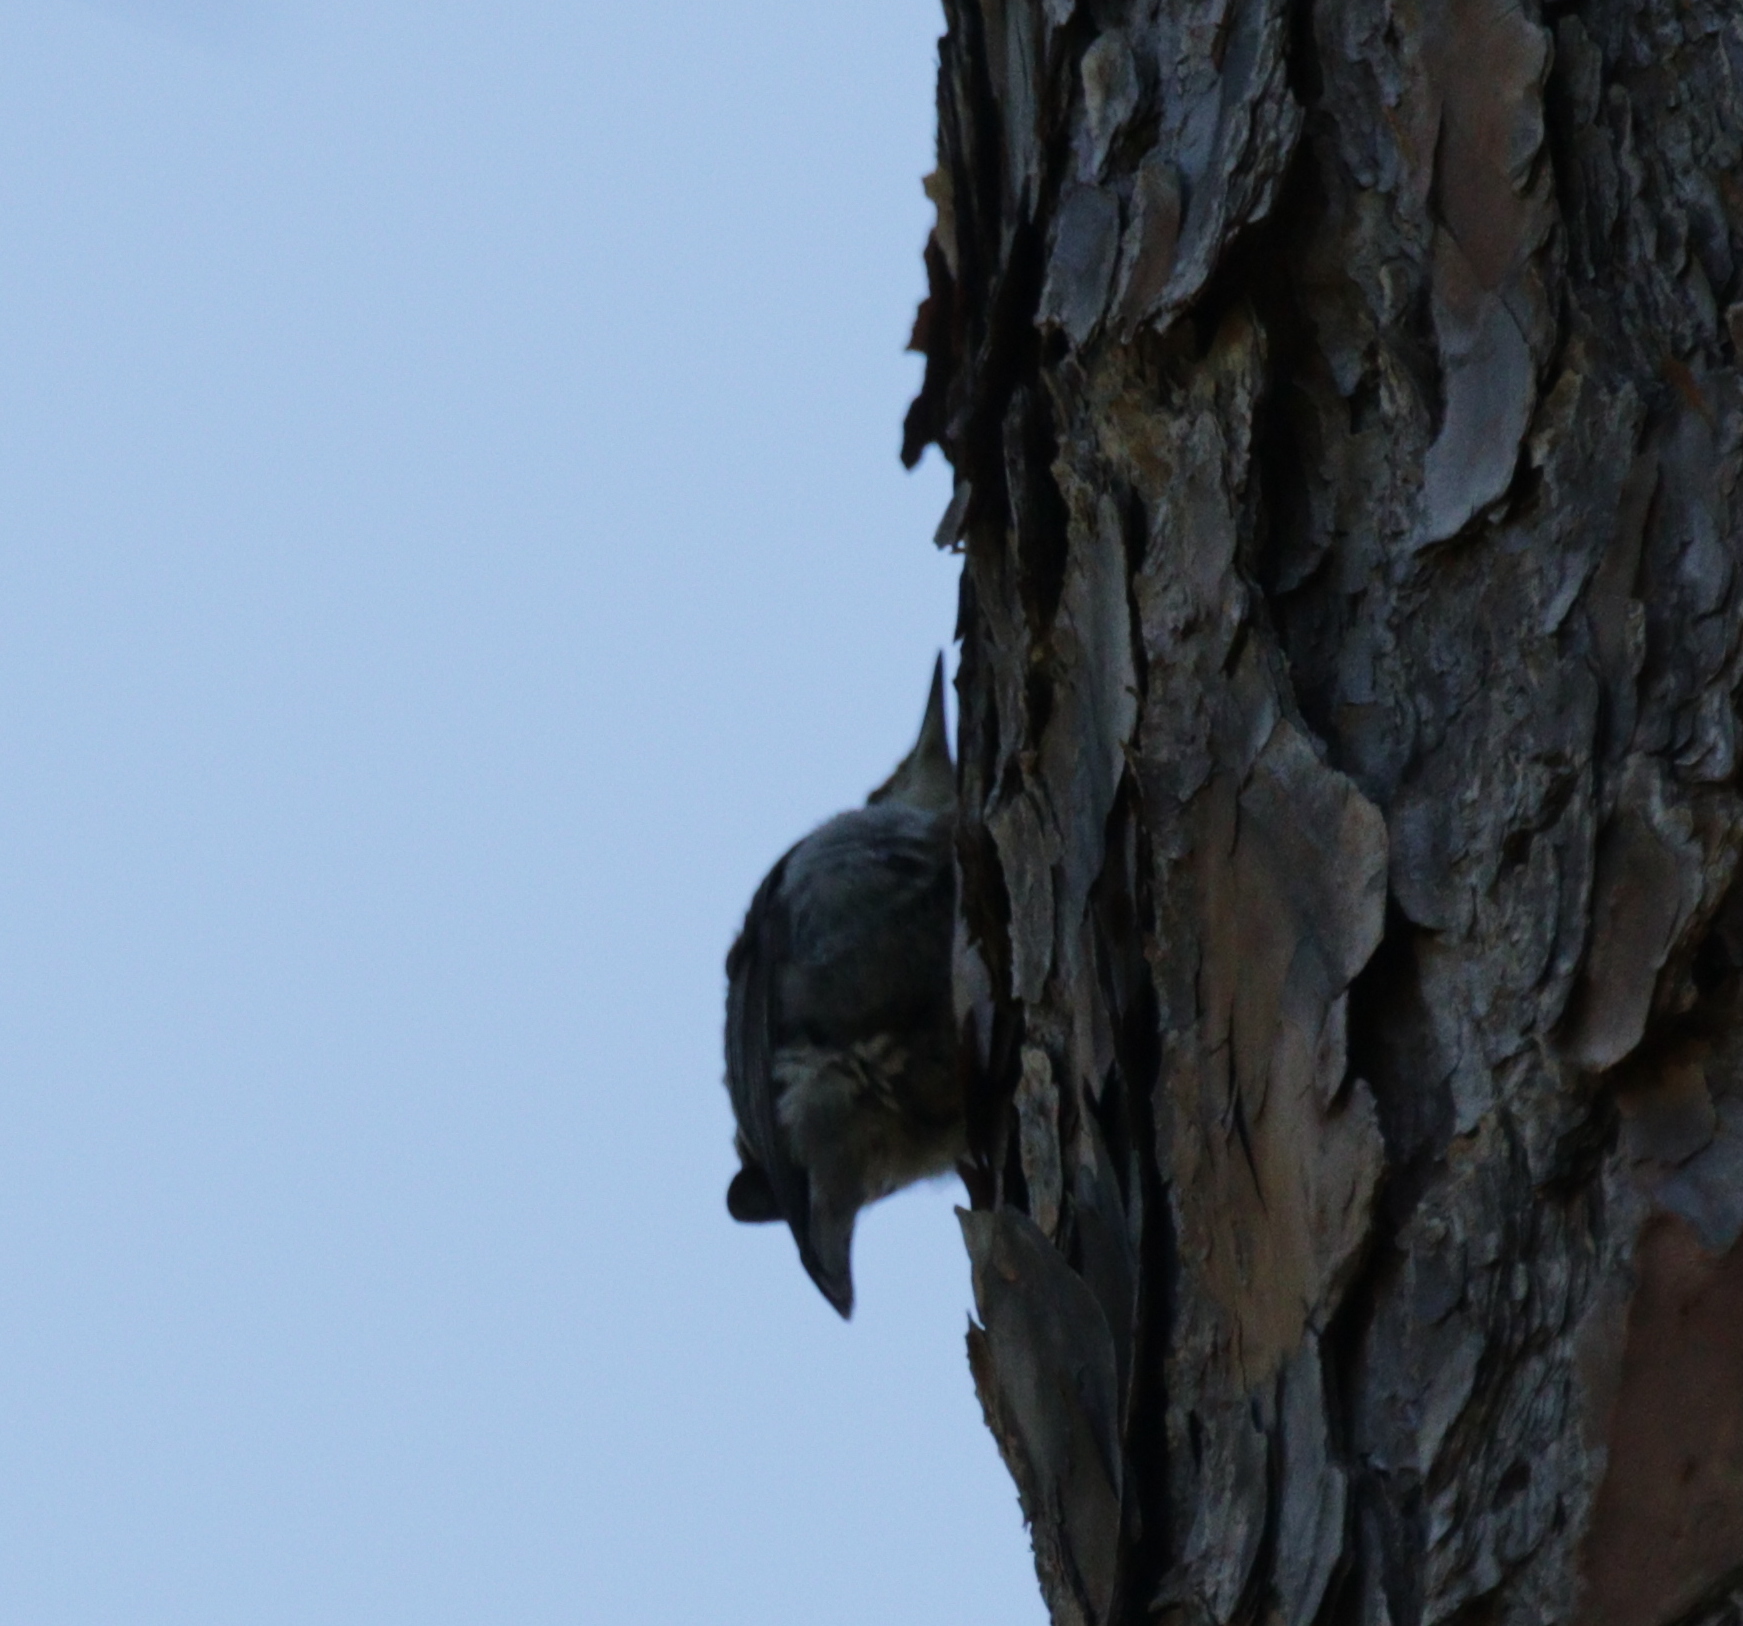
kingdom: Animalia
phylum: Chordata
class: Aves
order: Passeriformes
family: Sittidae
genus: Sitta
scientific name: Sitta pusilla
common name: Brown-headed nuthatch
